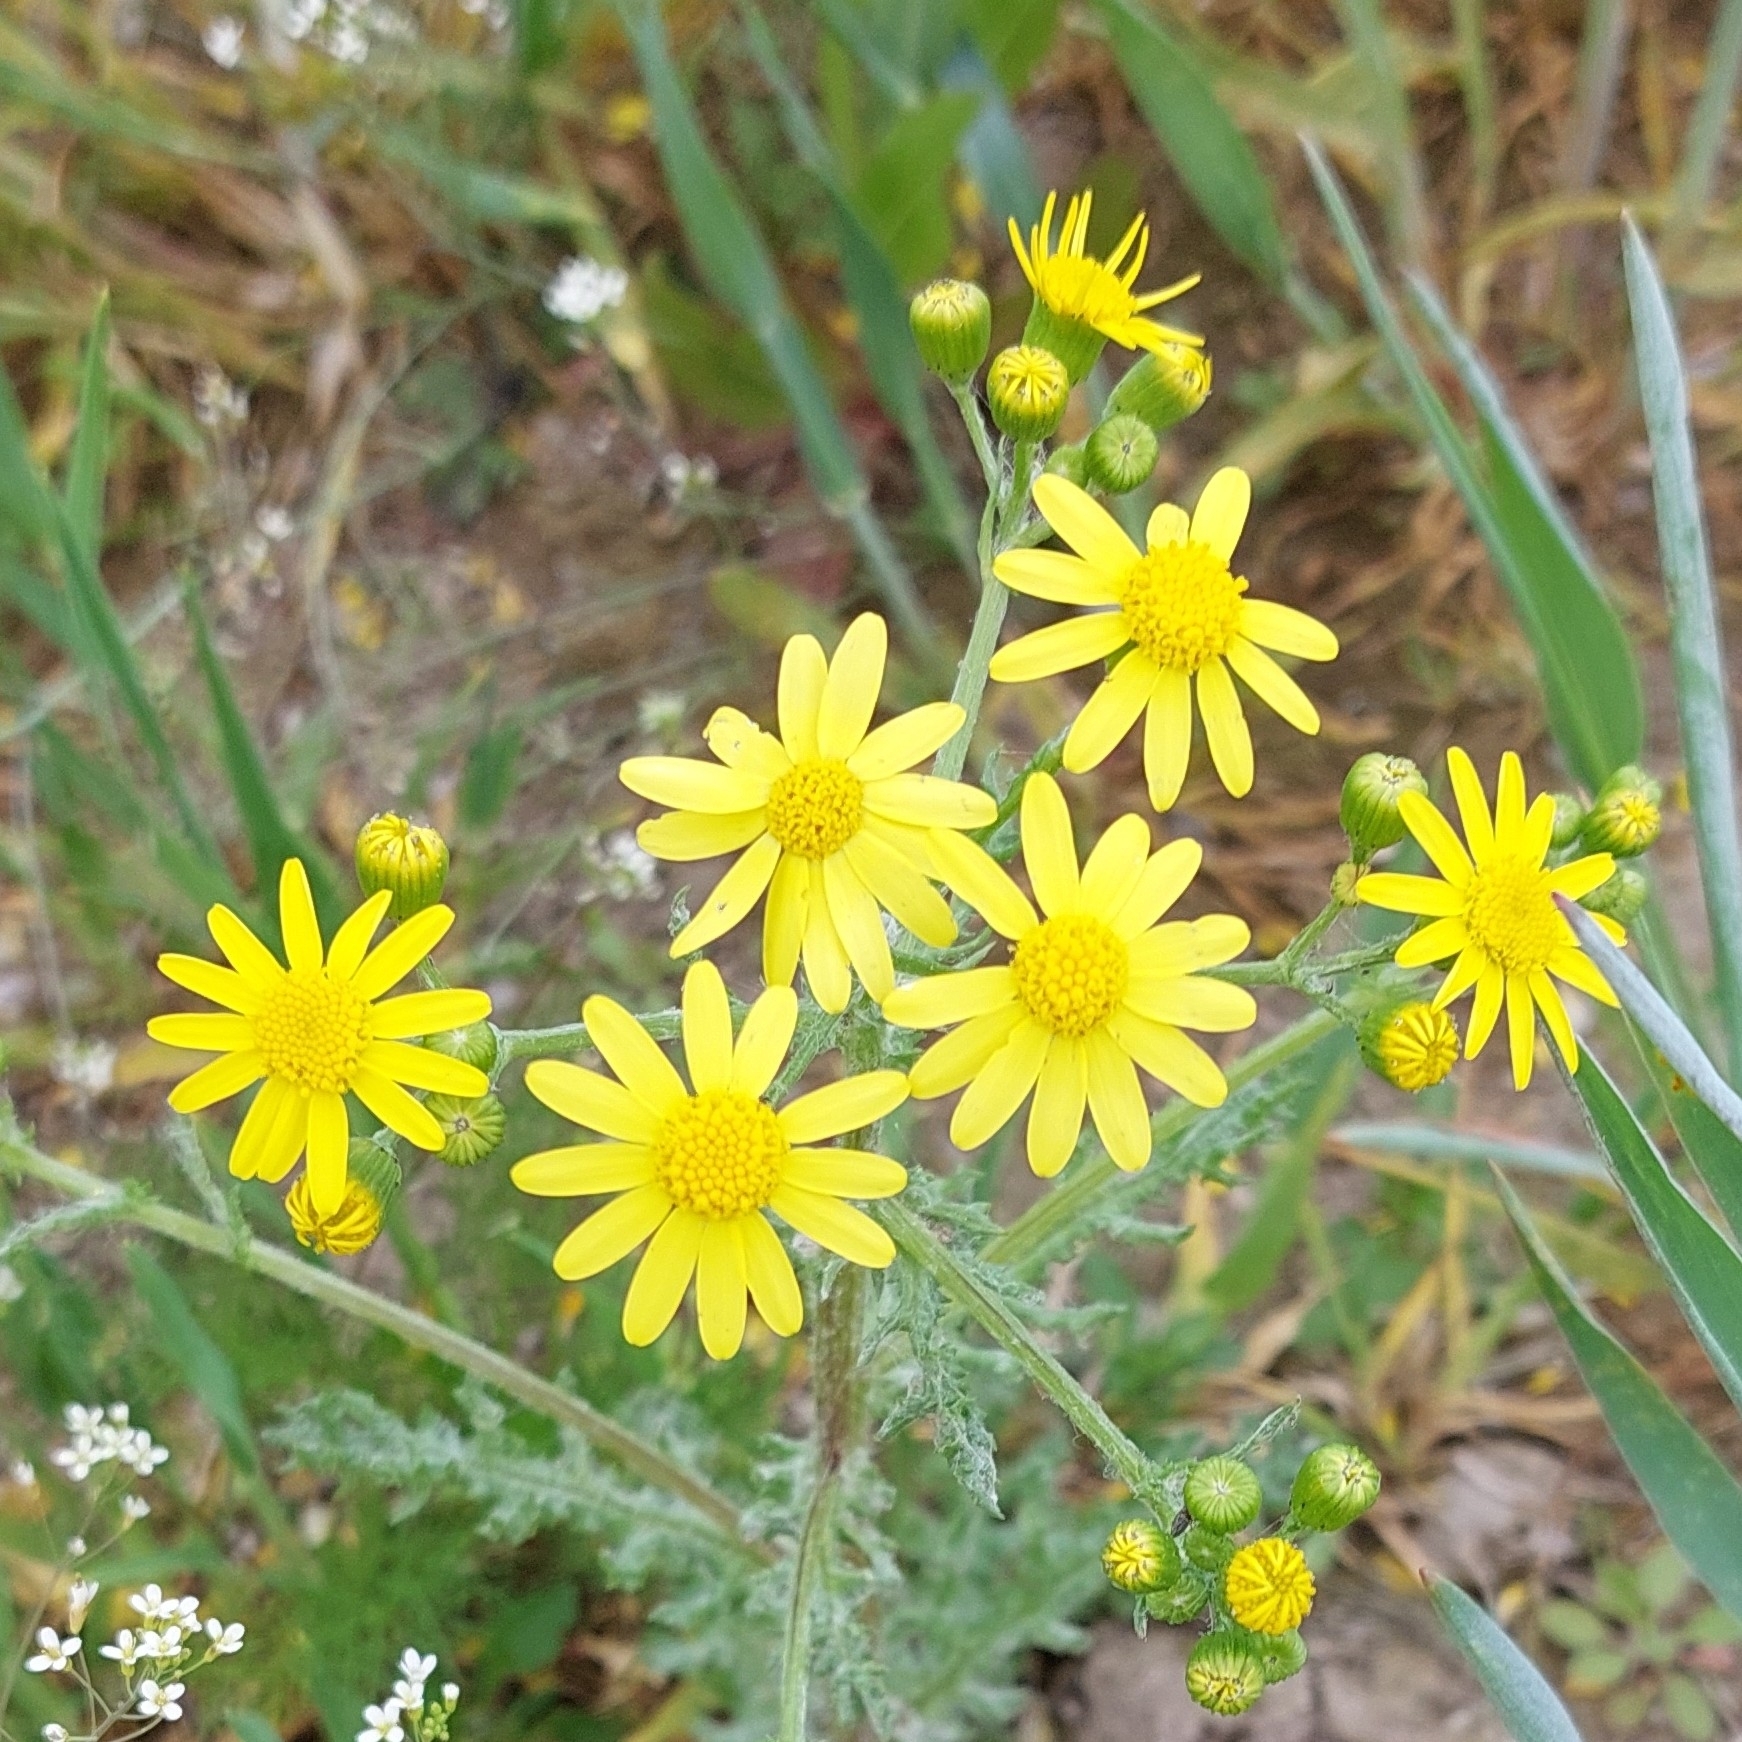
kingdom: Plantae
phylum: Tracheophyta
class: Magnoliopsida
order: Asterales
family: Asteraceae
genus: Senecio
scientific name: Senecio vernalis
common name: Eastern groundsel
